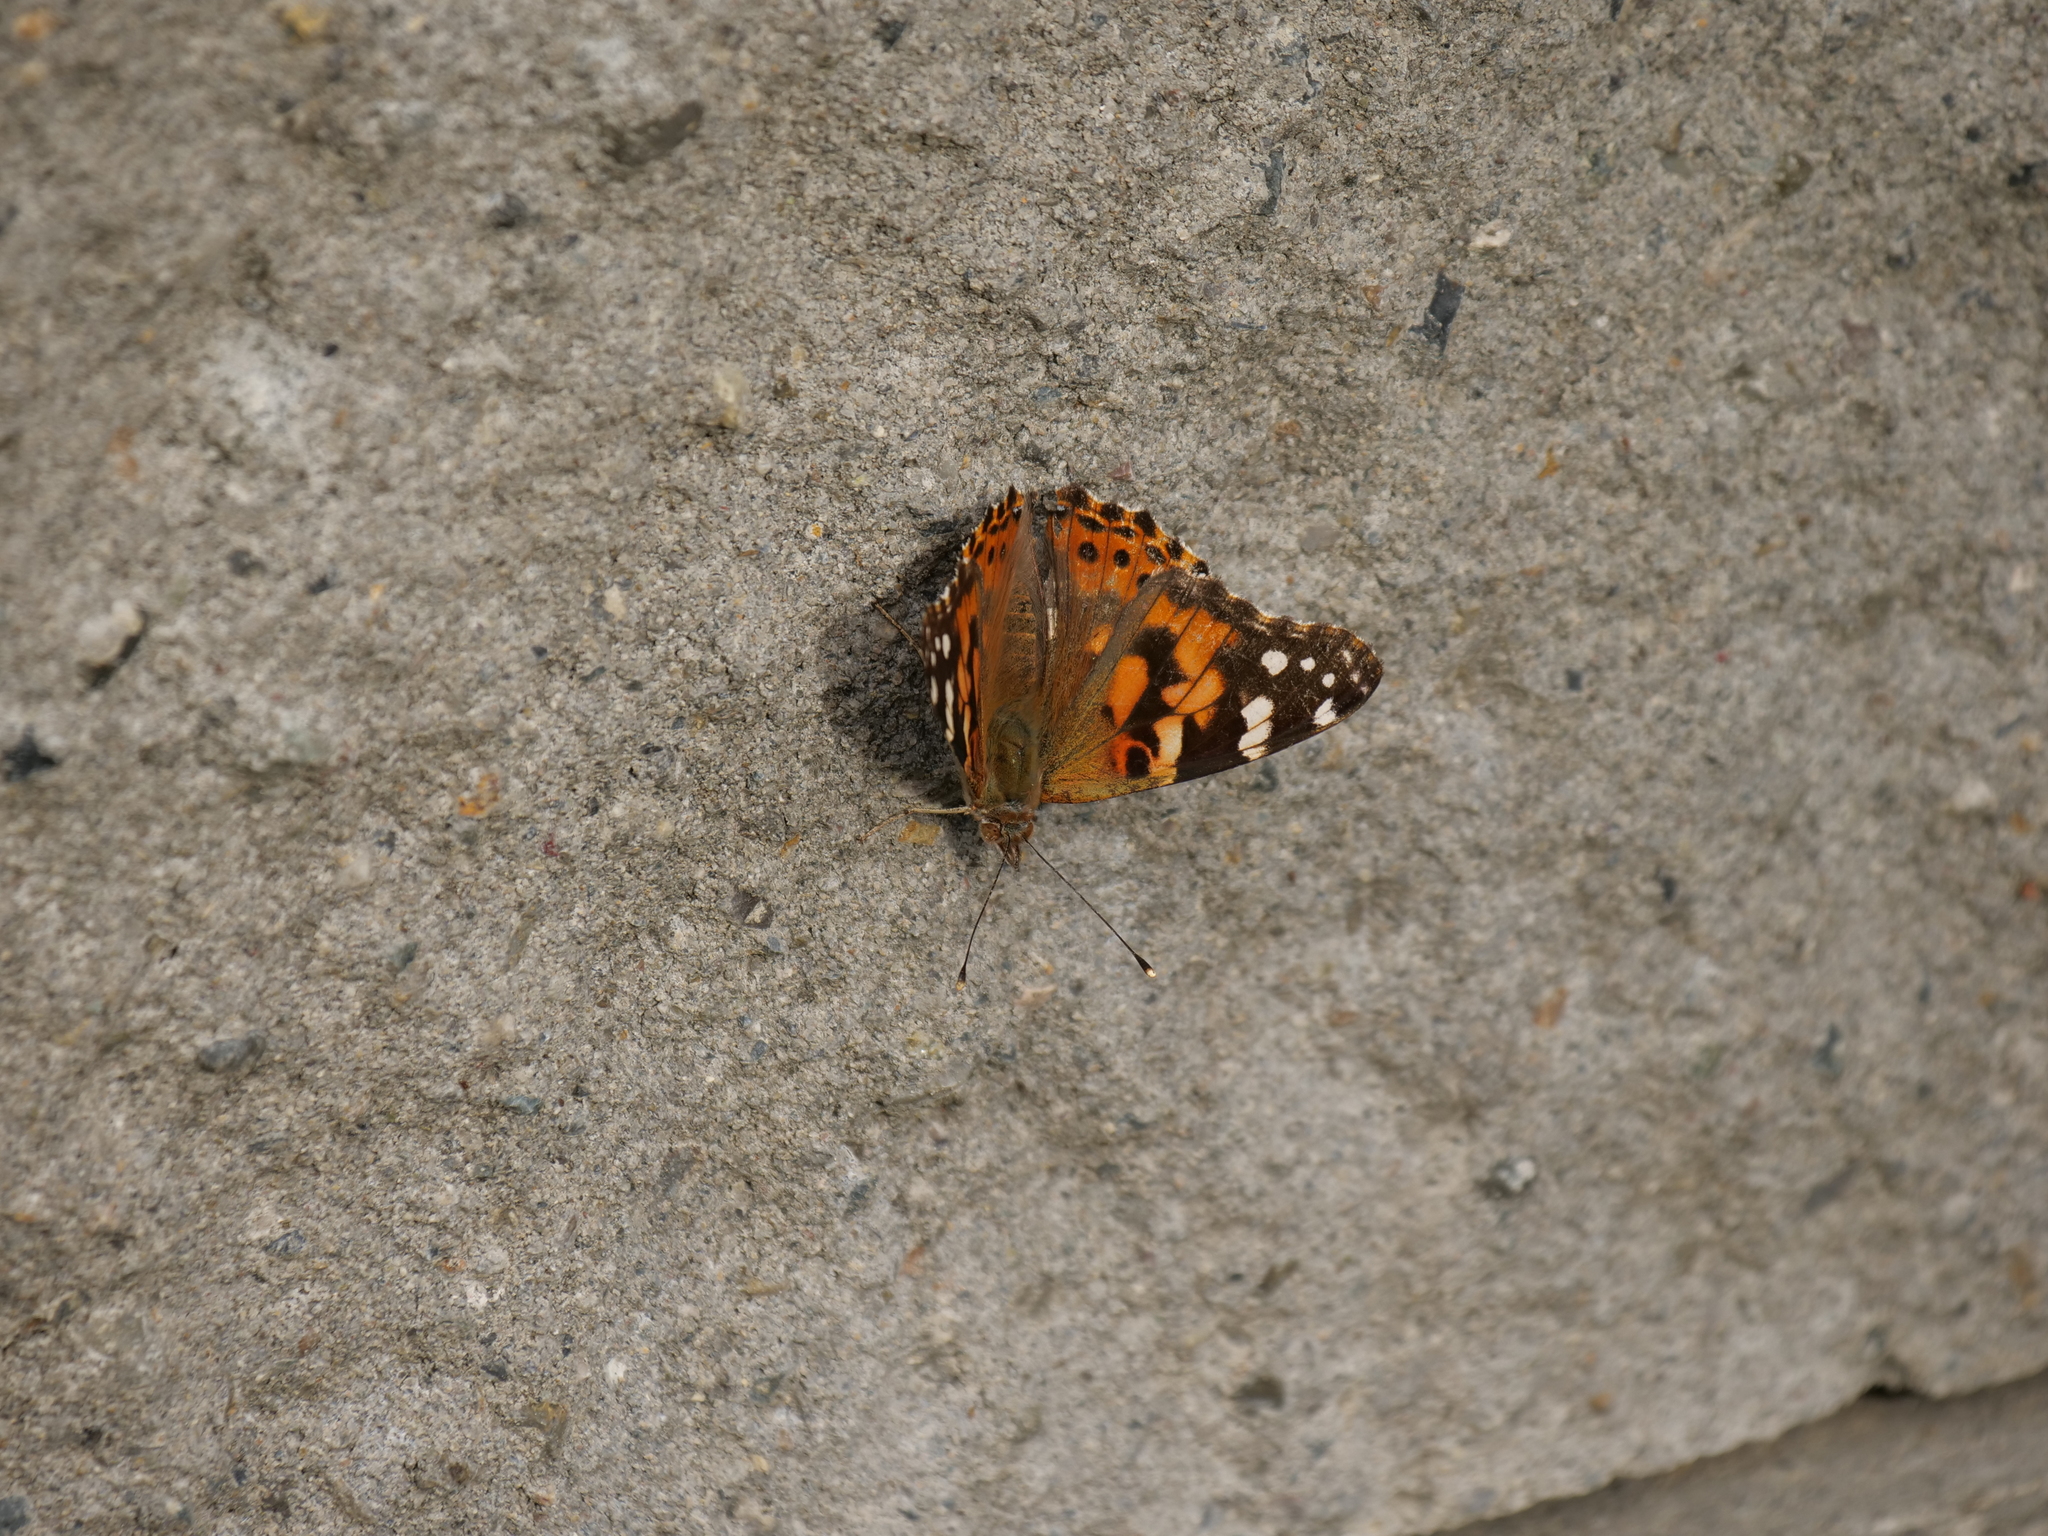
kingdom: Animalia
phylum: Arthropoda
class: Insecta
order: Lepidoptera
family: Nymphalidae
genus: Vanessa
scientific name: Vanessa cardui
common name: Painted lady
